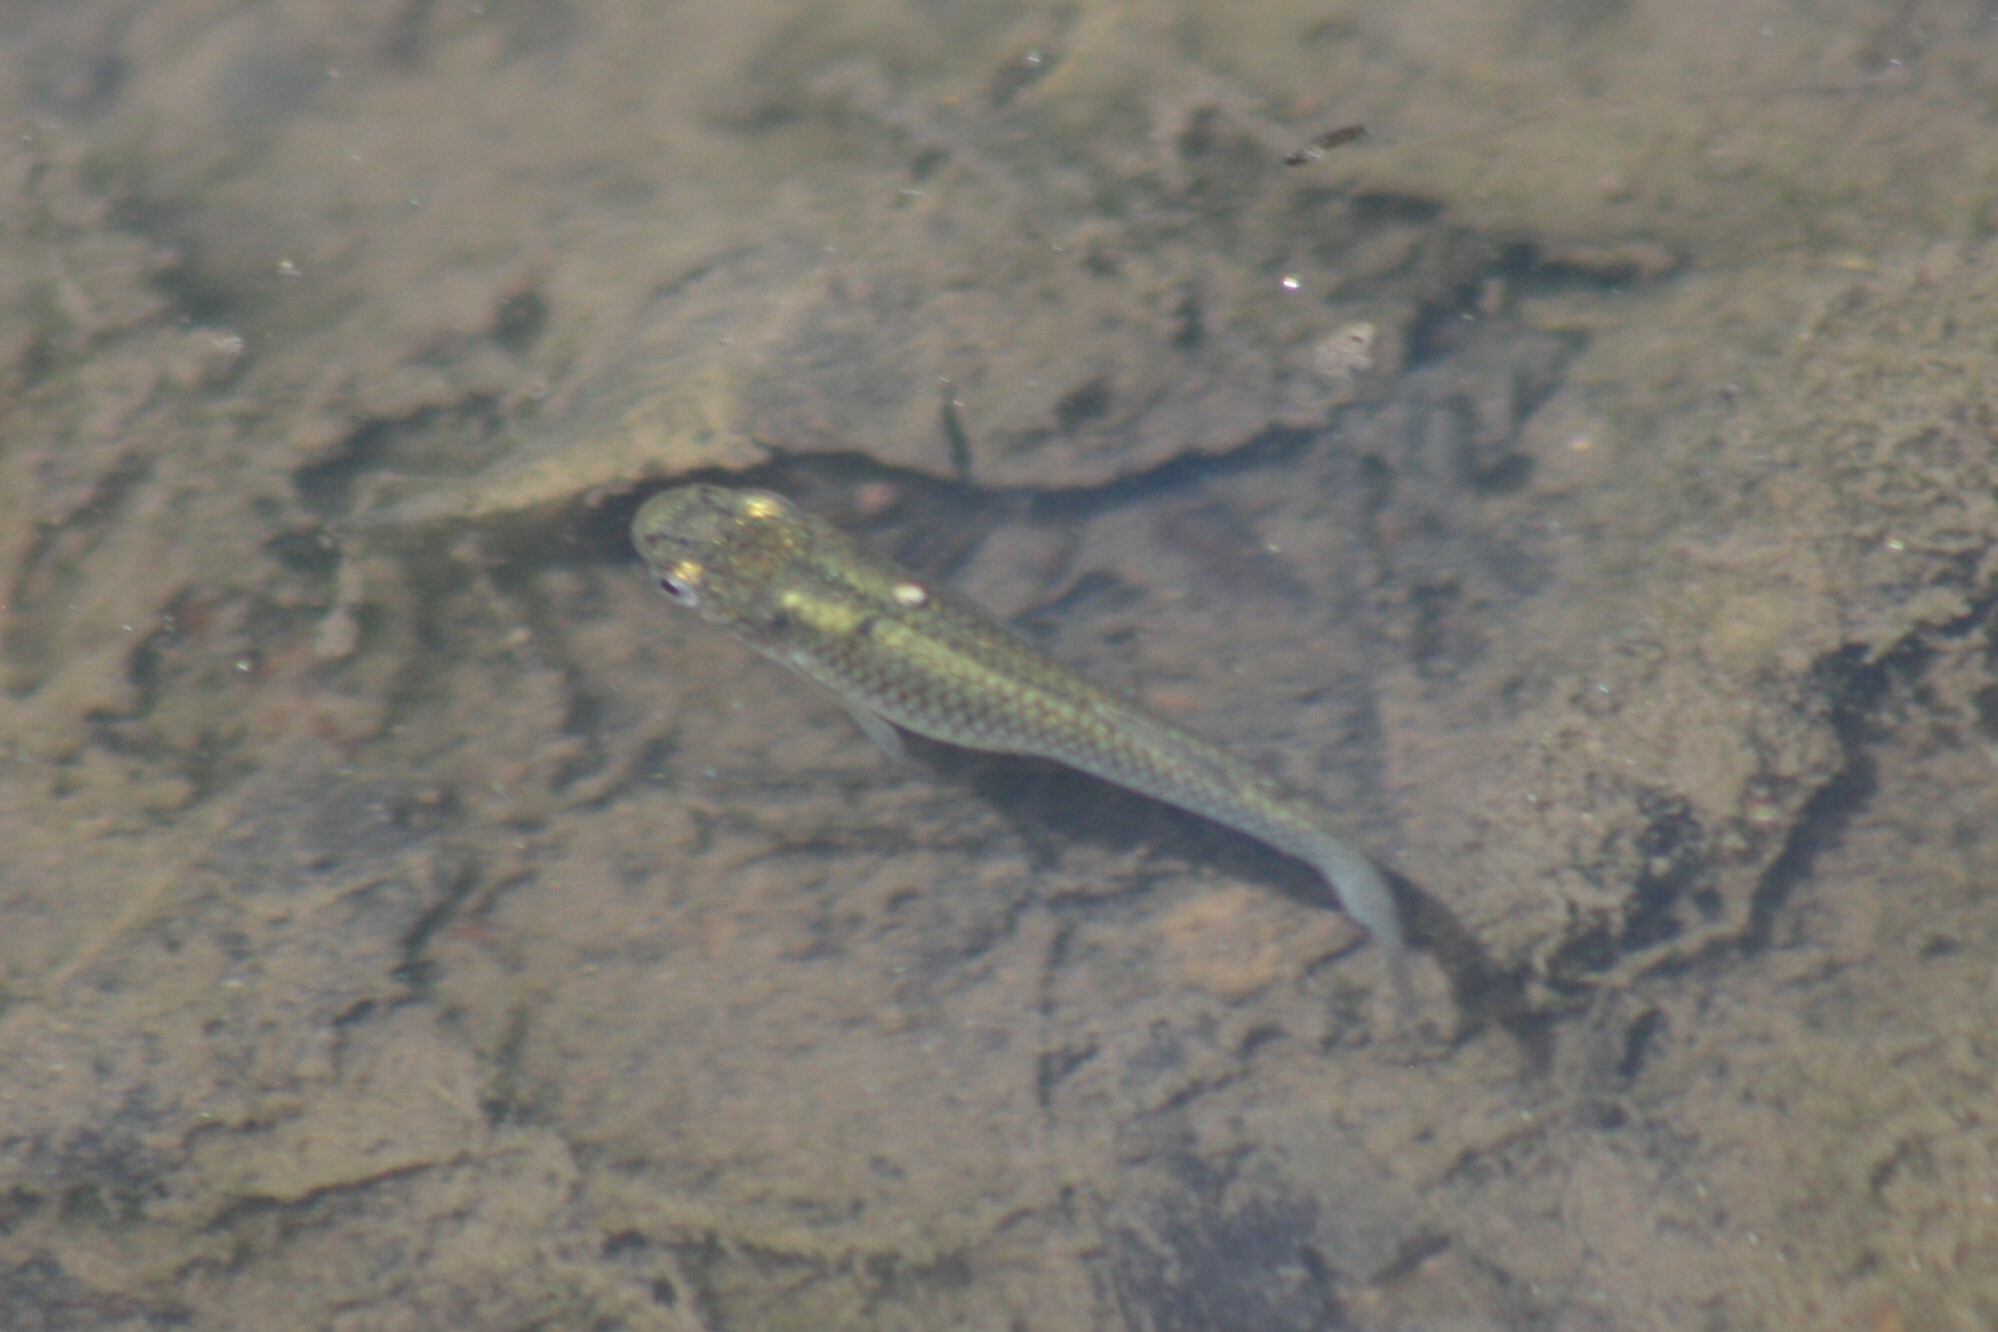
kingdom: Animalia
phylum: Chordata
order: Cyprinodontiformes
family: Poeciliidae
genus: Gambusia
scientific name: Gambusia affinis
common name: Mosquitofish
